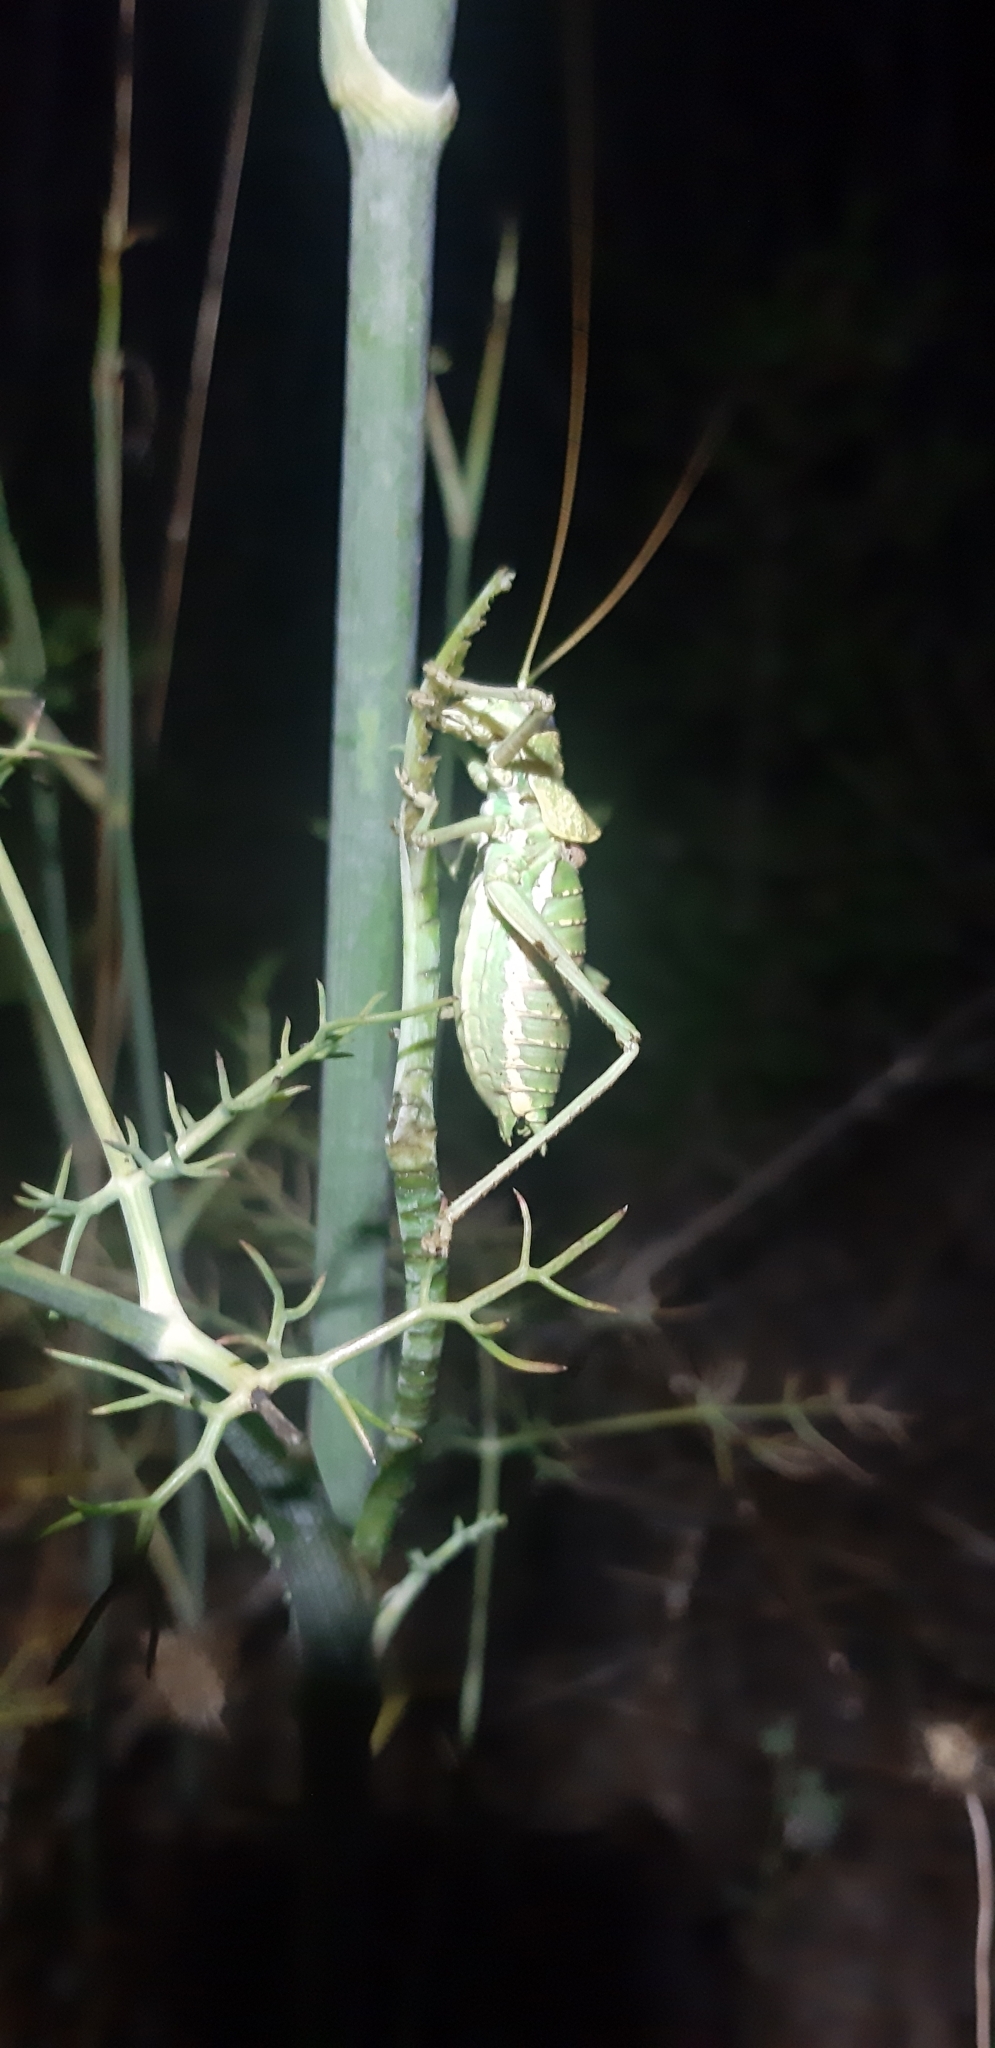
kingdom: Animalia
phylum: Arthropoda
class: Insecta
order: Orthoptera
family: Tettigoniidae
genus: Uromenus
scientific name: Uromenus elegans
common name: Elegant saddle bush-cricket
